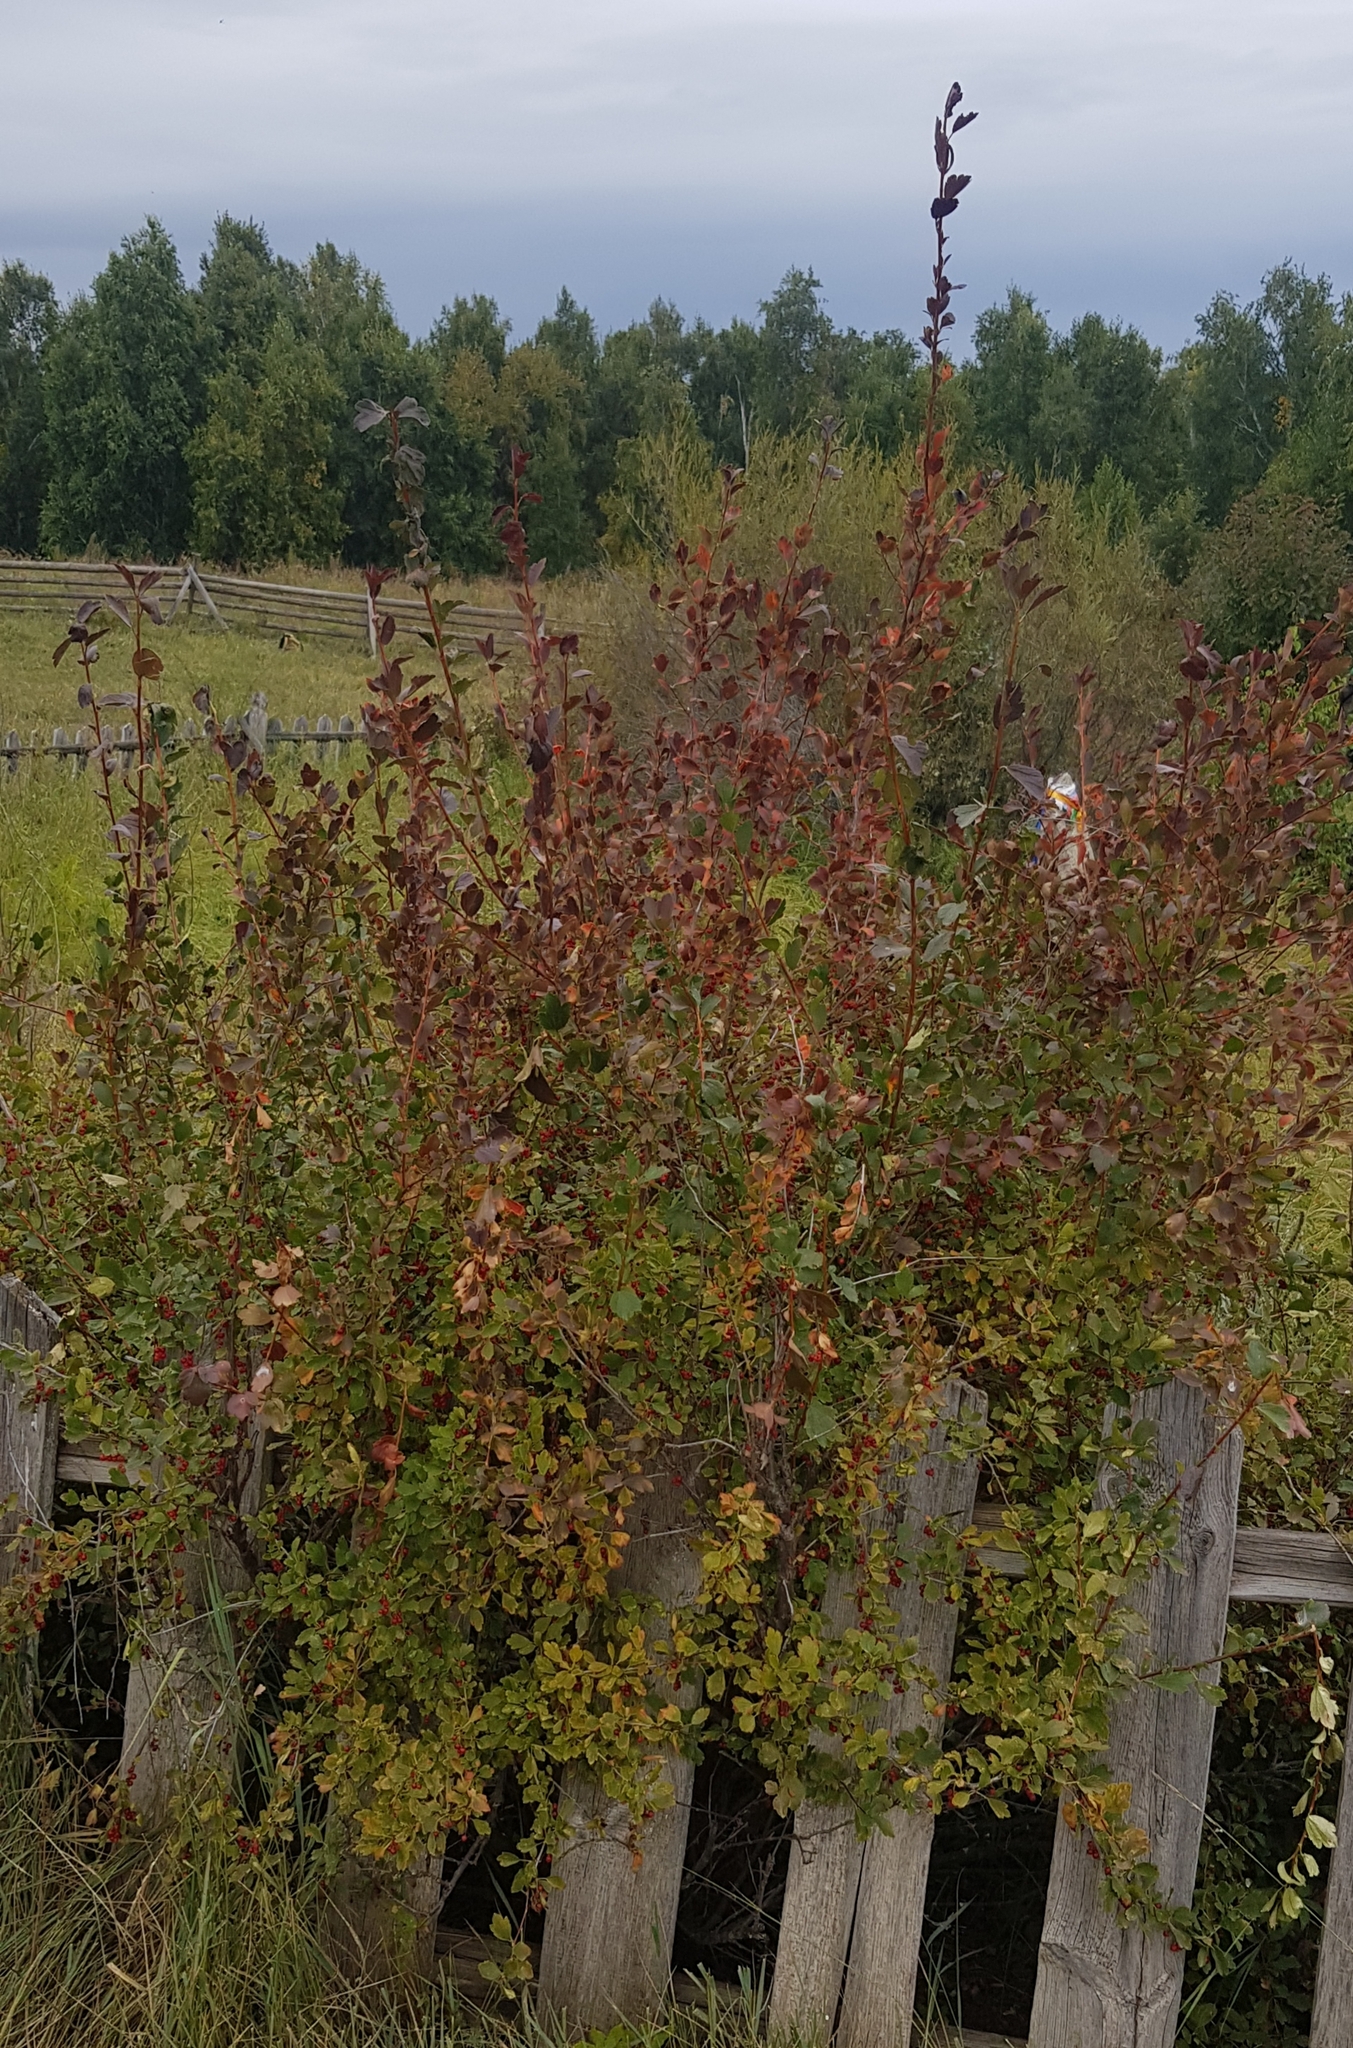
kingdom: Plantae
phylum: Tracheophyta
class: Magnoliopsida
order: Saxifragales
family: Grossulariaceae
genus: Ribes
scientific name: Ribes diacanthum
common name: Siberian currant
